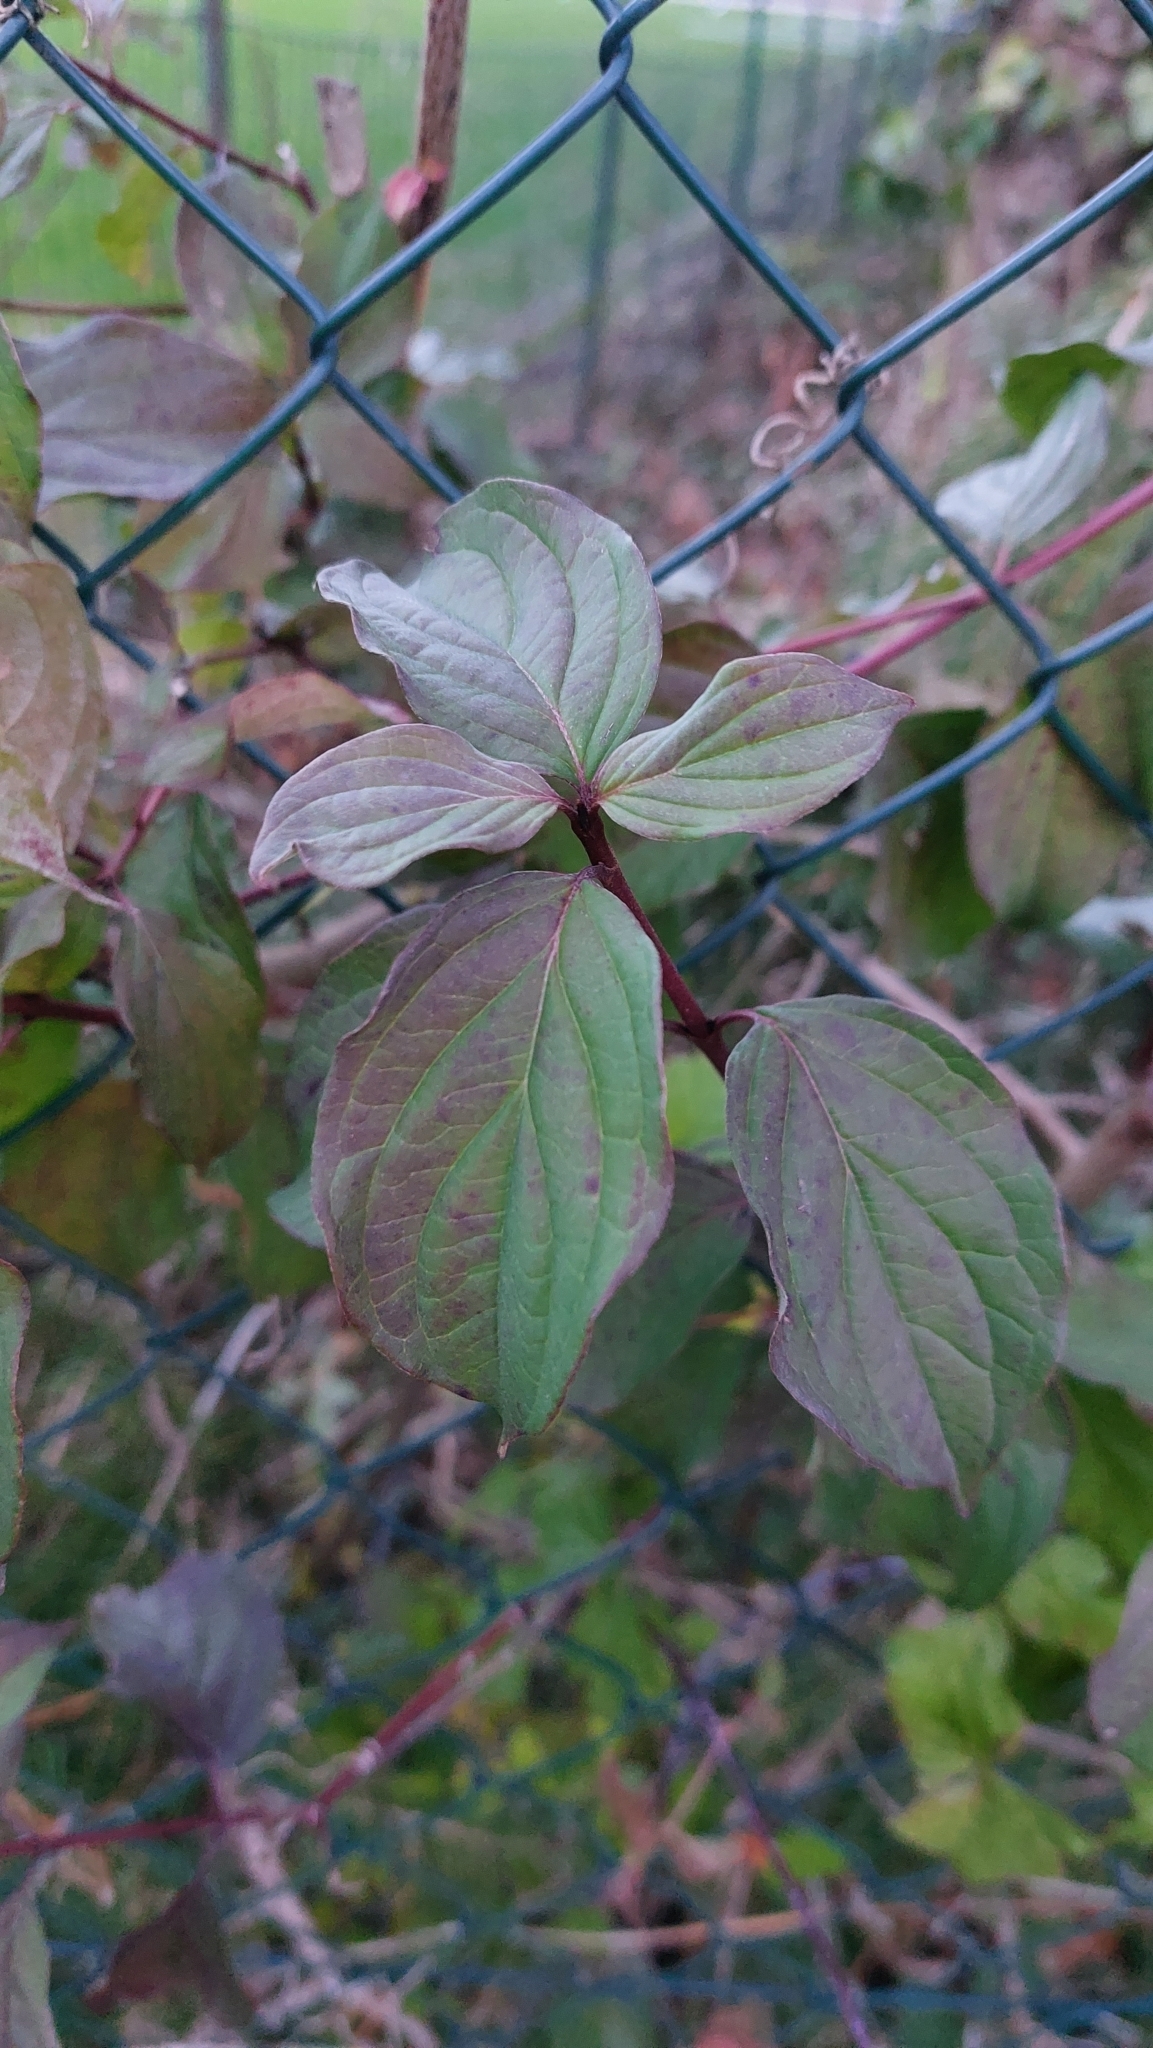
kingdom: Plantae
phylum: Tracheophyta
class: Magnoliopsida
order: Cornales
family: Cornaceae
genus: Cornus
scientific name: Cornus sanguinea
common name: Dogwood
